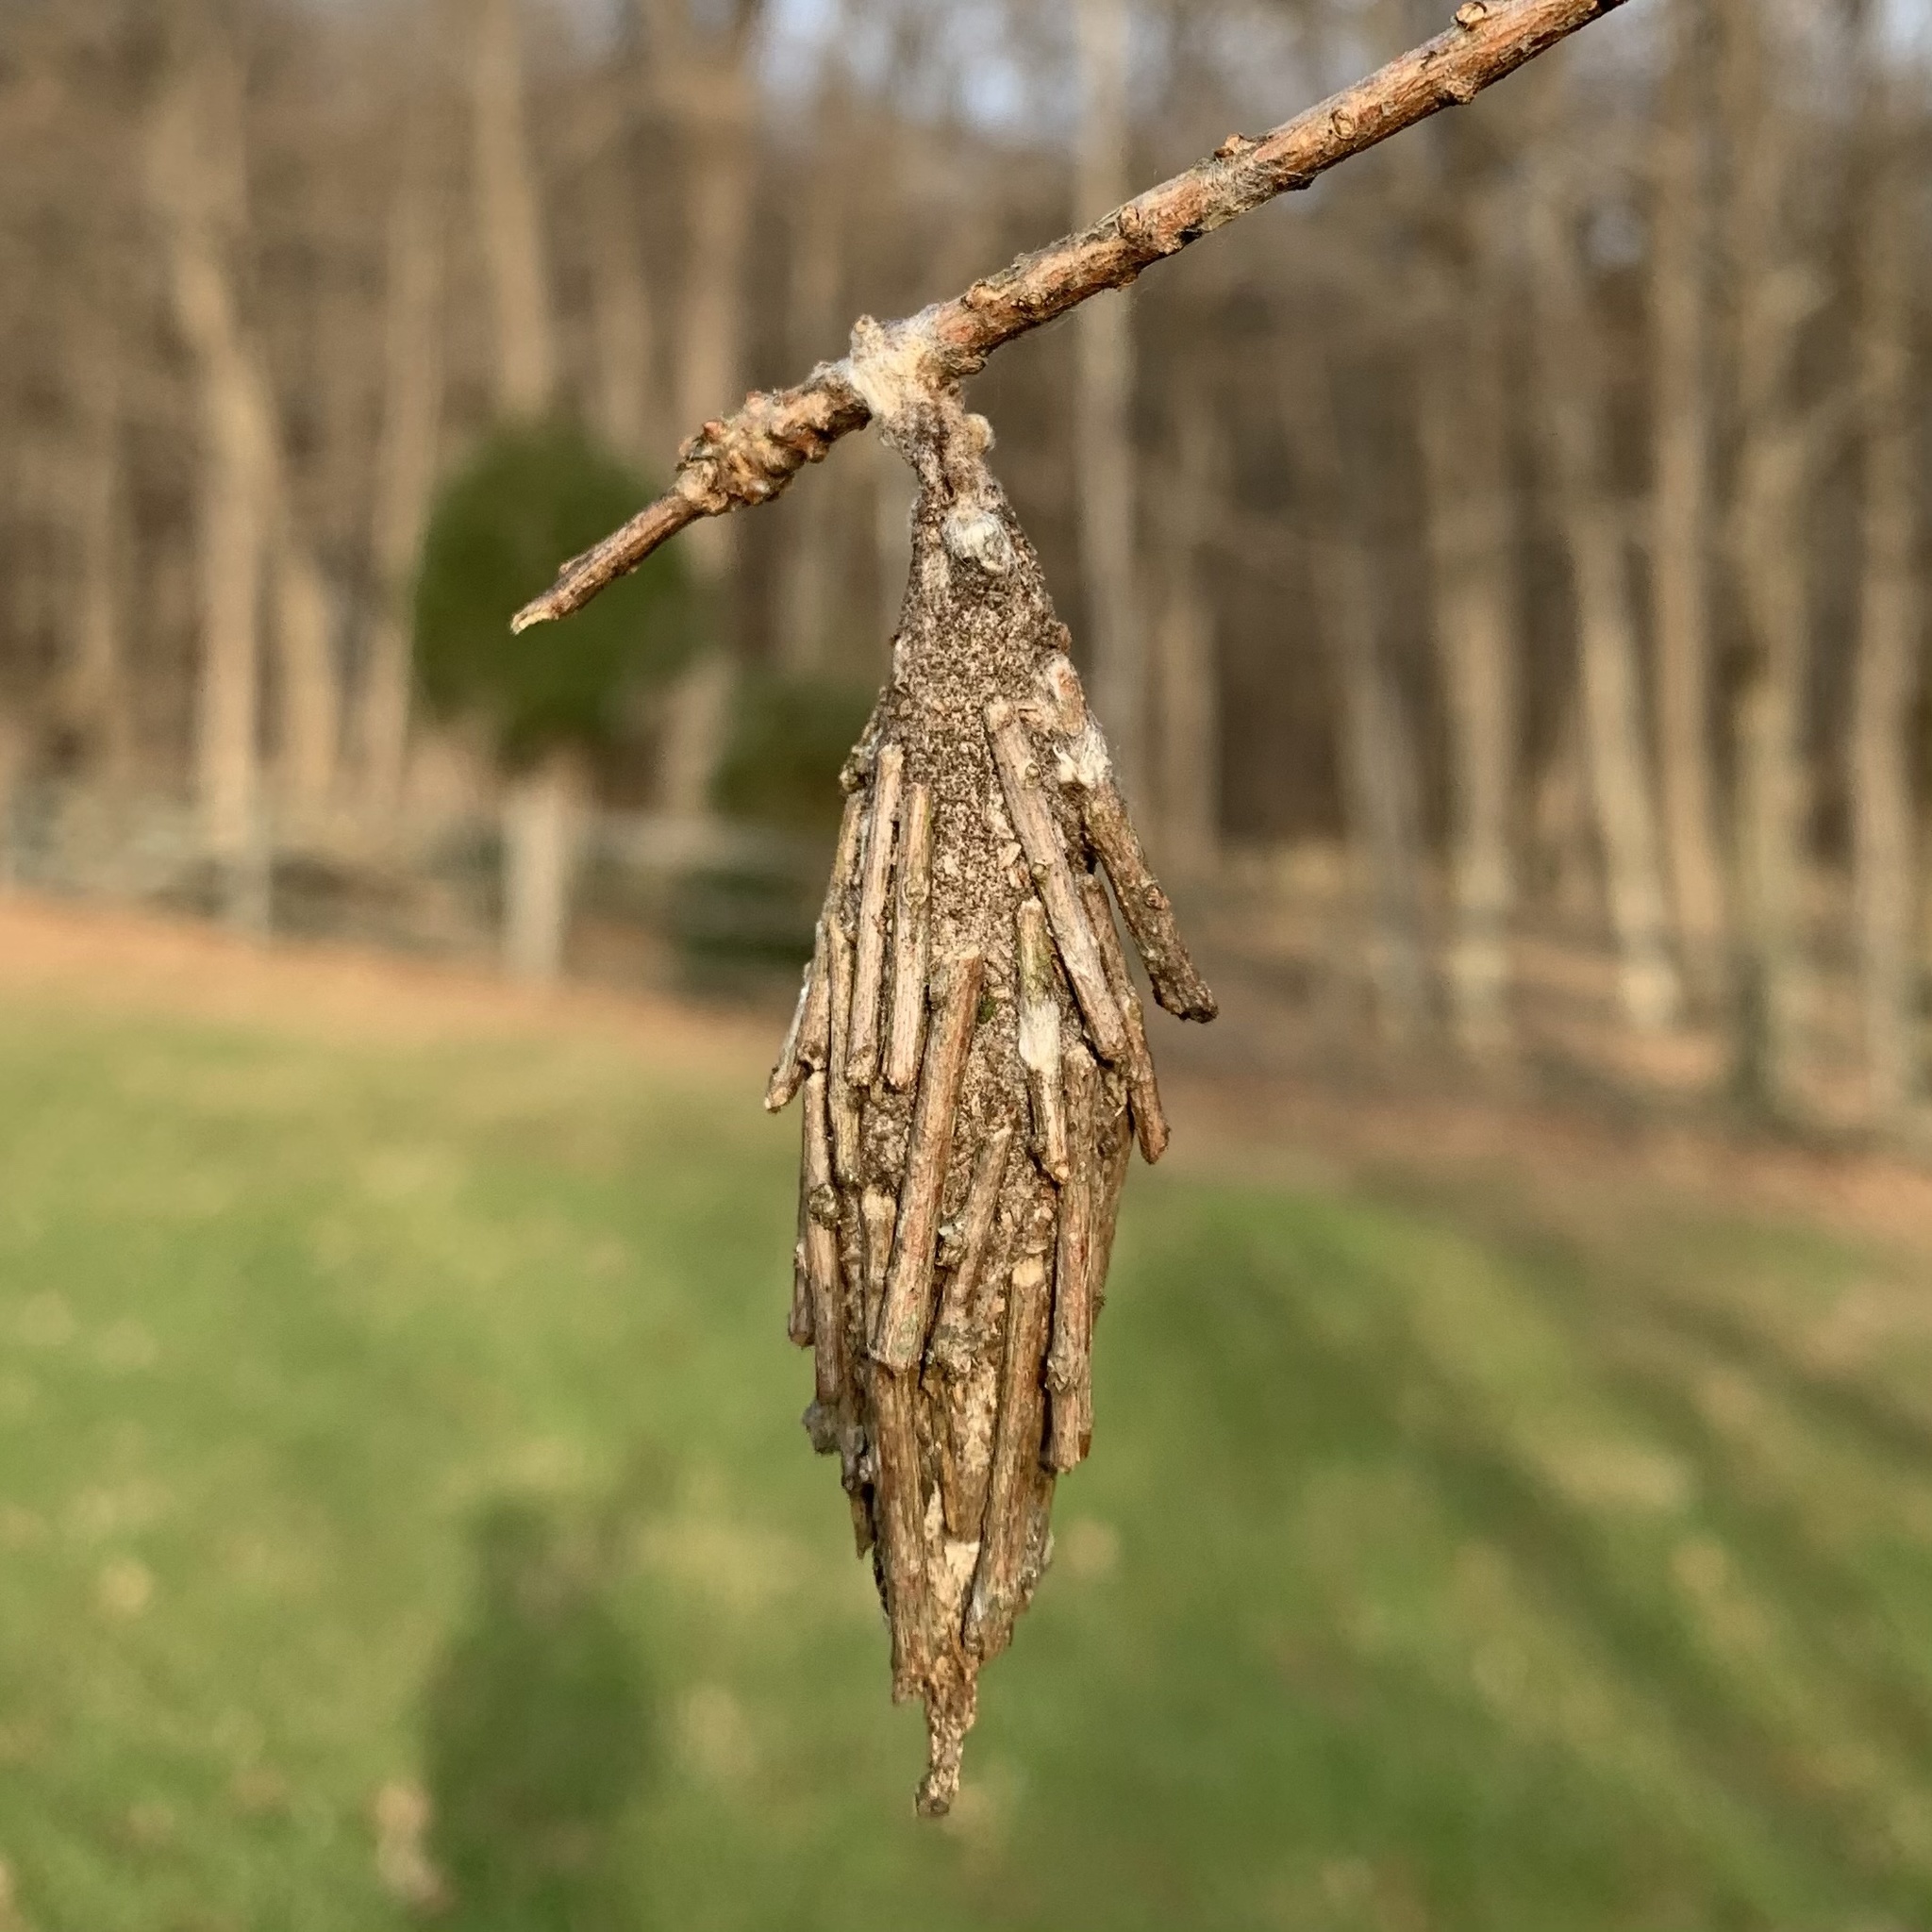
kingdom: Animalia
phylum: Arthropoda
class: Insecta
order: Lepidoptera
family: Psychidae
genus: Thyridopteryx
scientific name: Thyridopteryx ephemeraeformis
